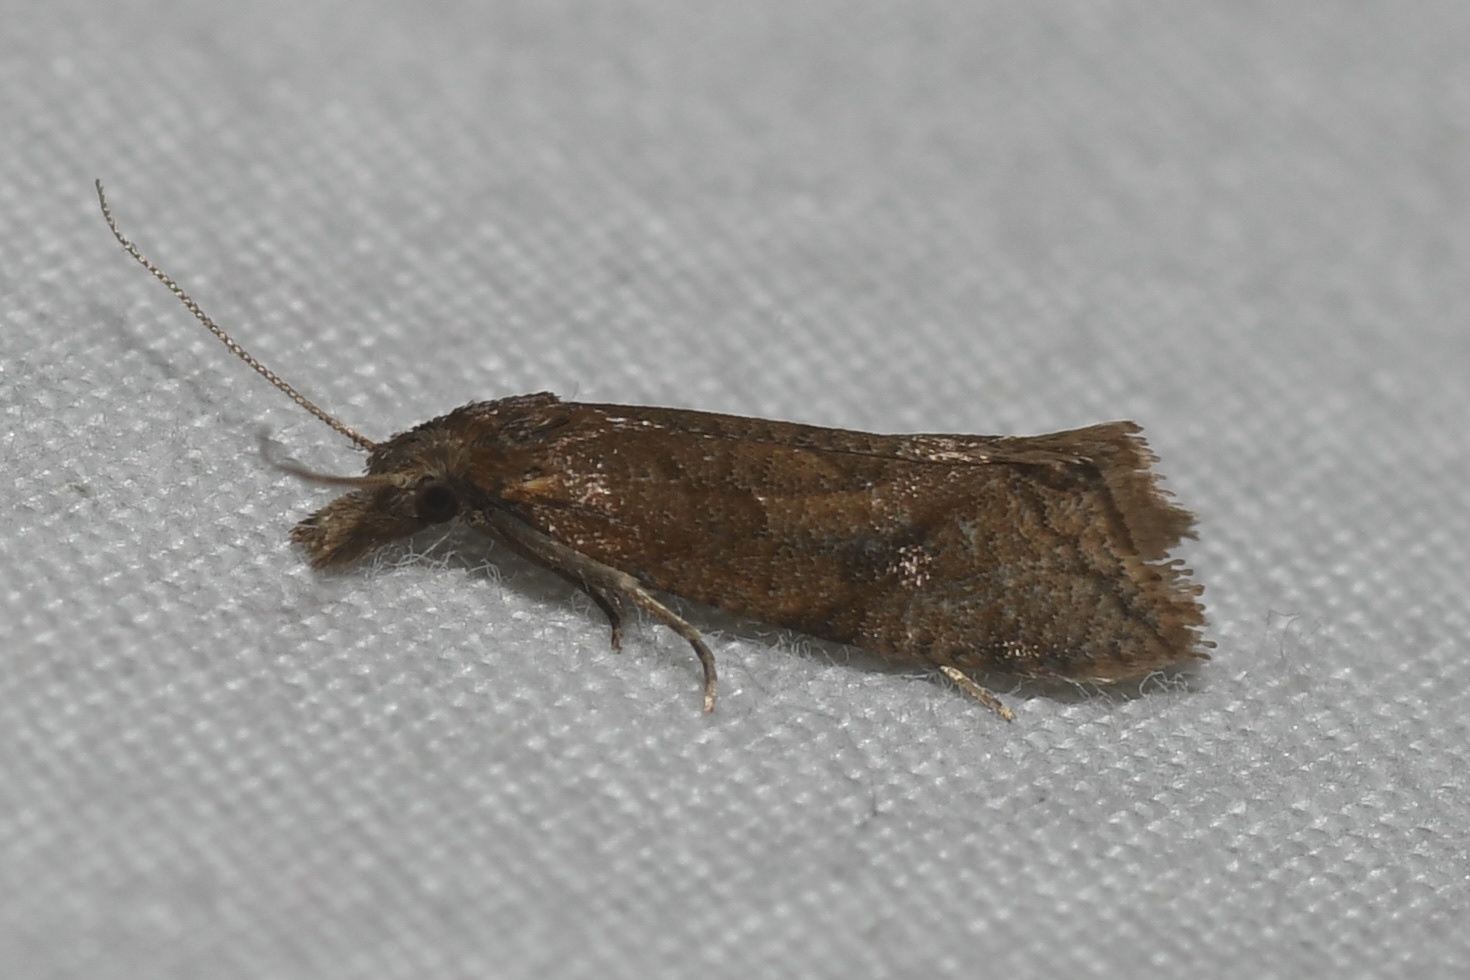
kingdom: Animalia
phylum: Arthropoda
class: Insecta
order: Lepidoptera
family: Tortricidae
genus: Aethes
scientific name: Aethes biscana
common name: Reddish aethes
